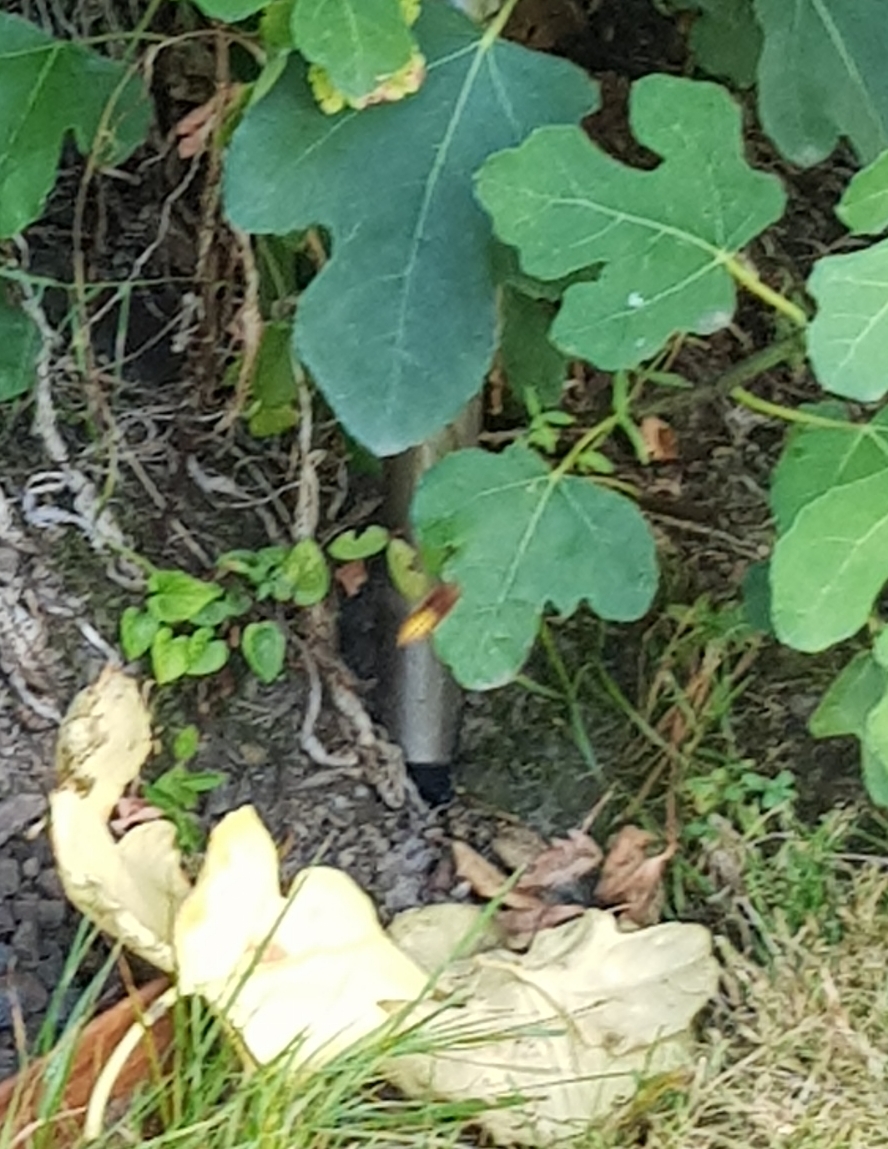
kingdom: Animalia
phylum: Arthropoda
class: Insecta
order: Hymenoptera
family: Vespidae
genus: Vespa
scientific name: Vespa crabro
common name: Hornet
